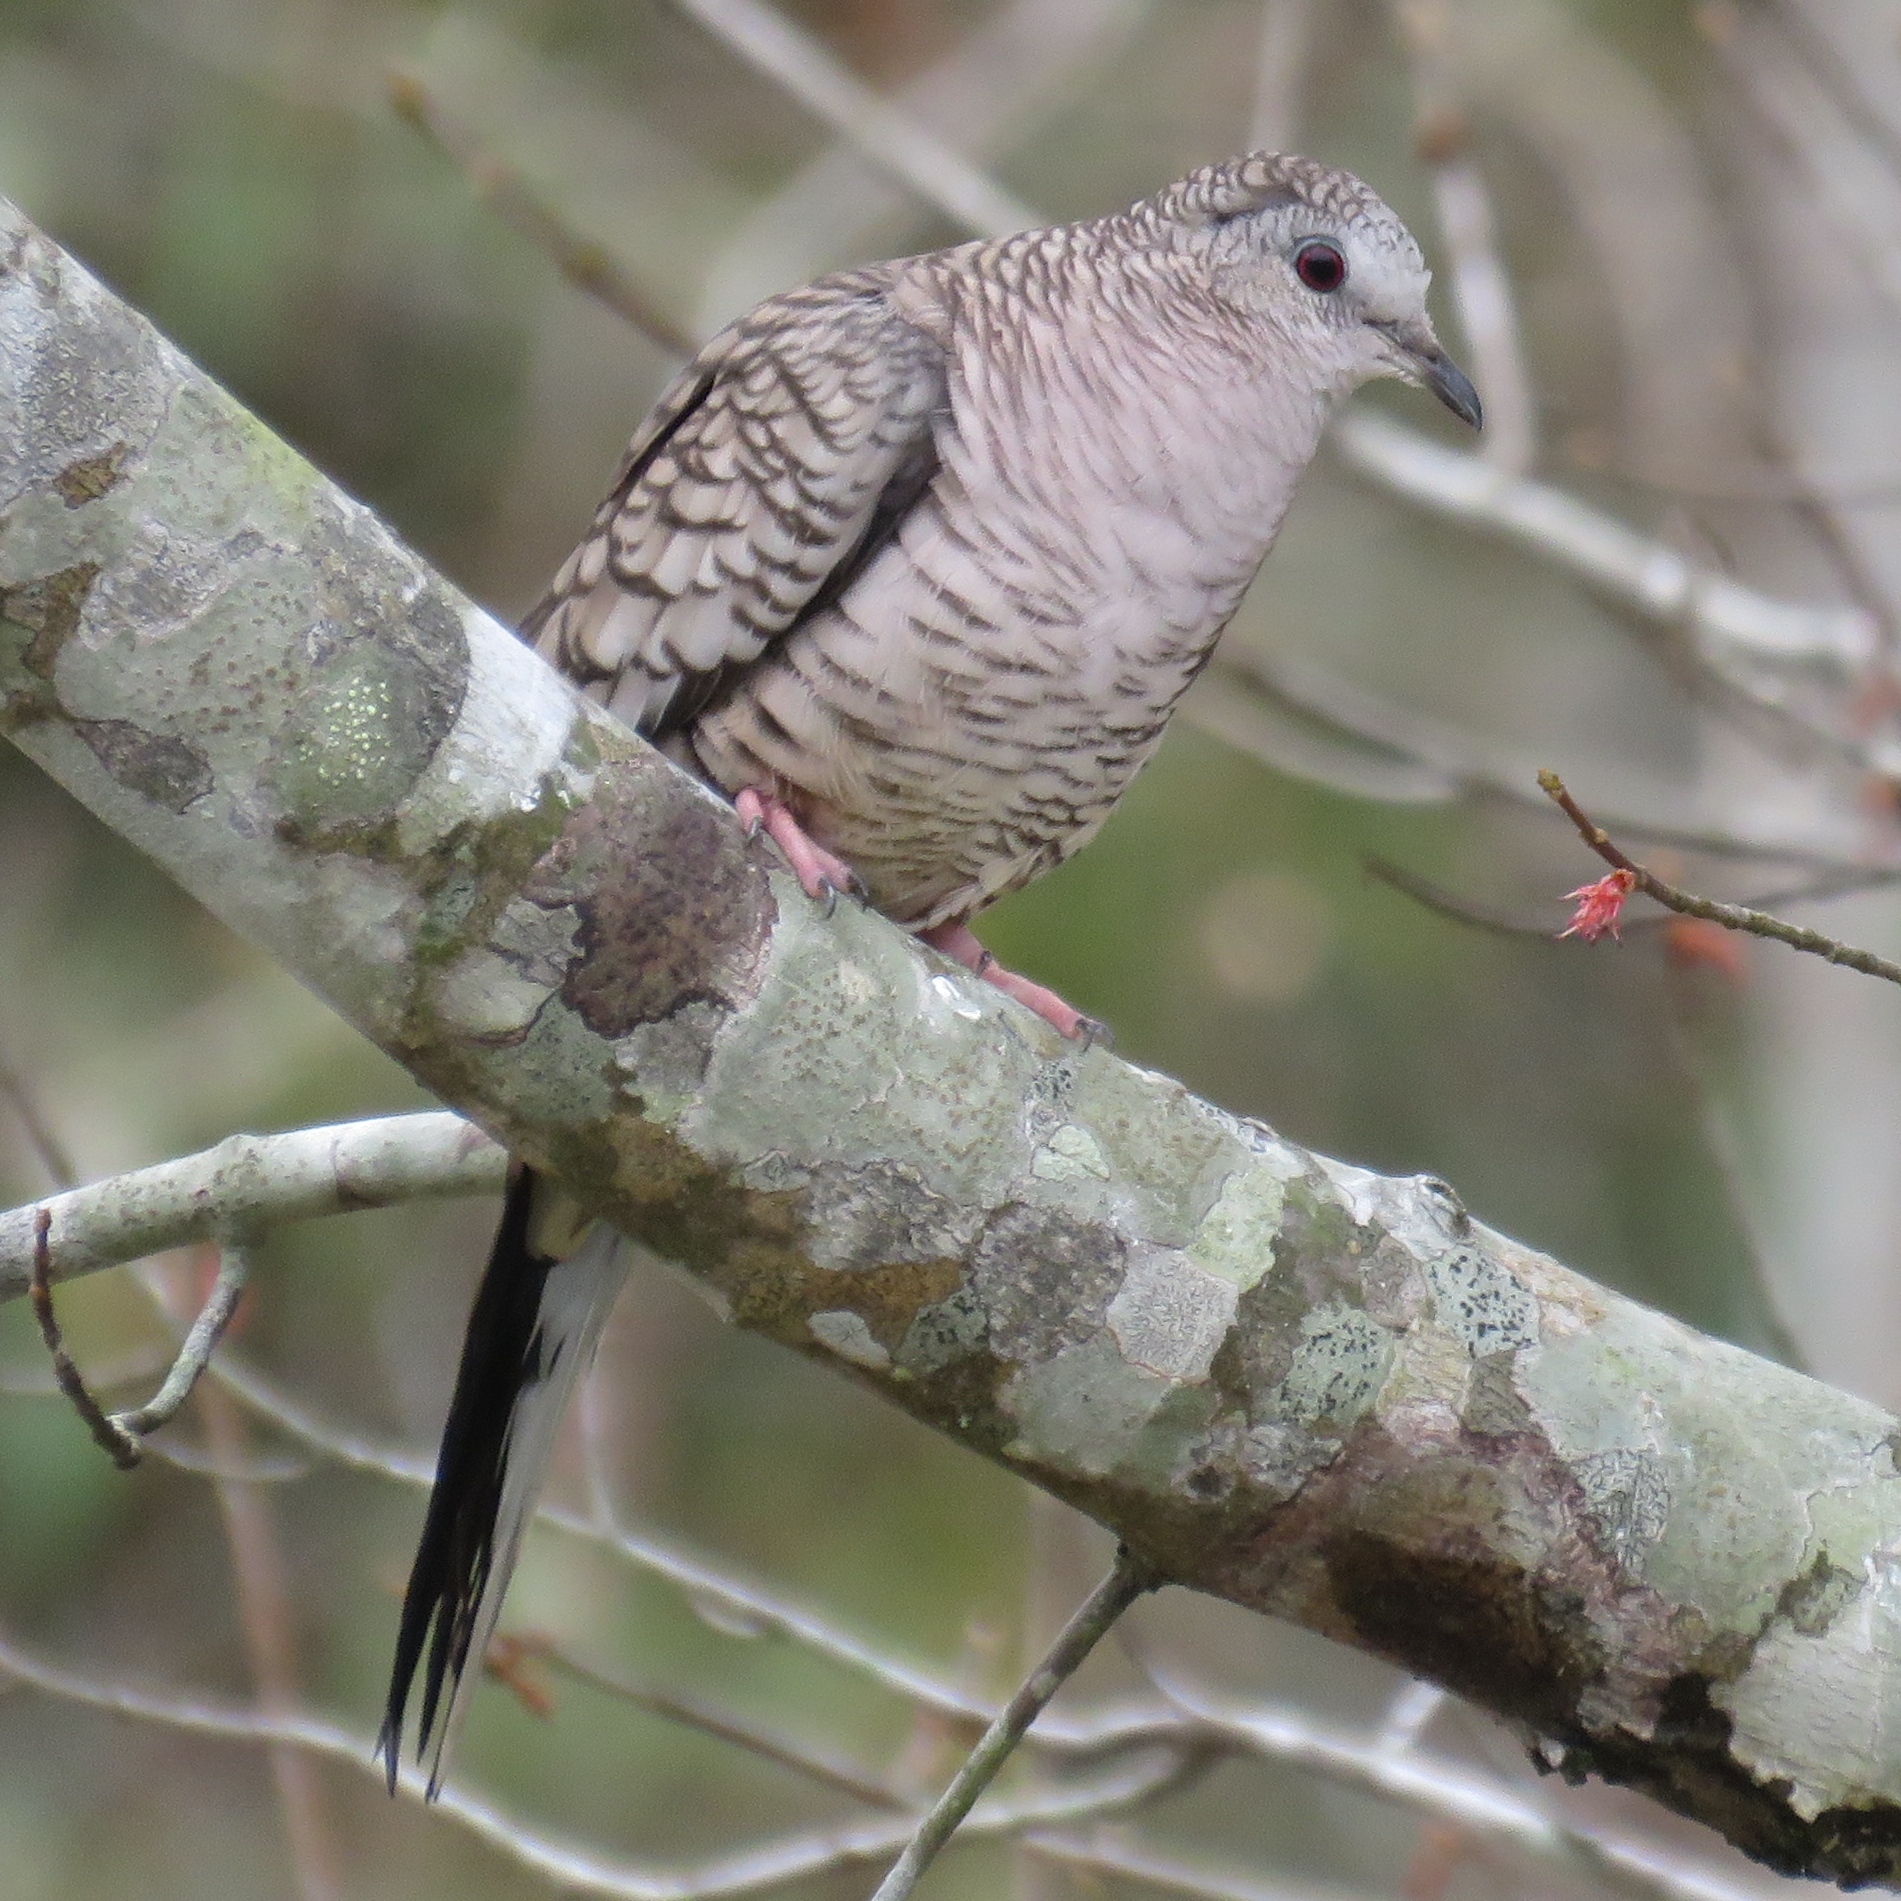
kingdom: Animalia
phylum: Chordata
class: Aves
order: Columbiformes
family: Columbidae
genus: Columbina
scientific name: Columbina inca
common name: Inca dove
